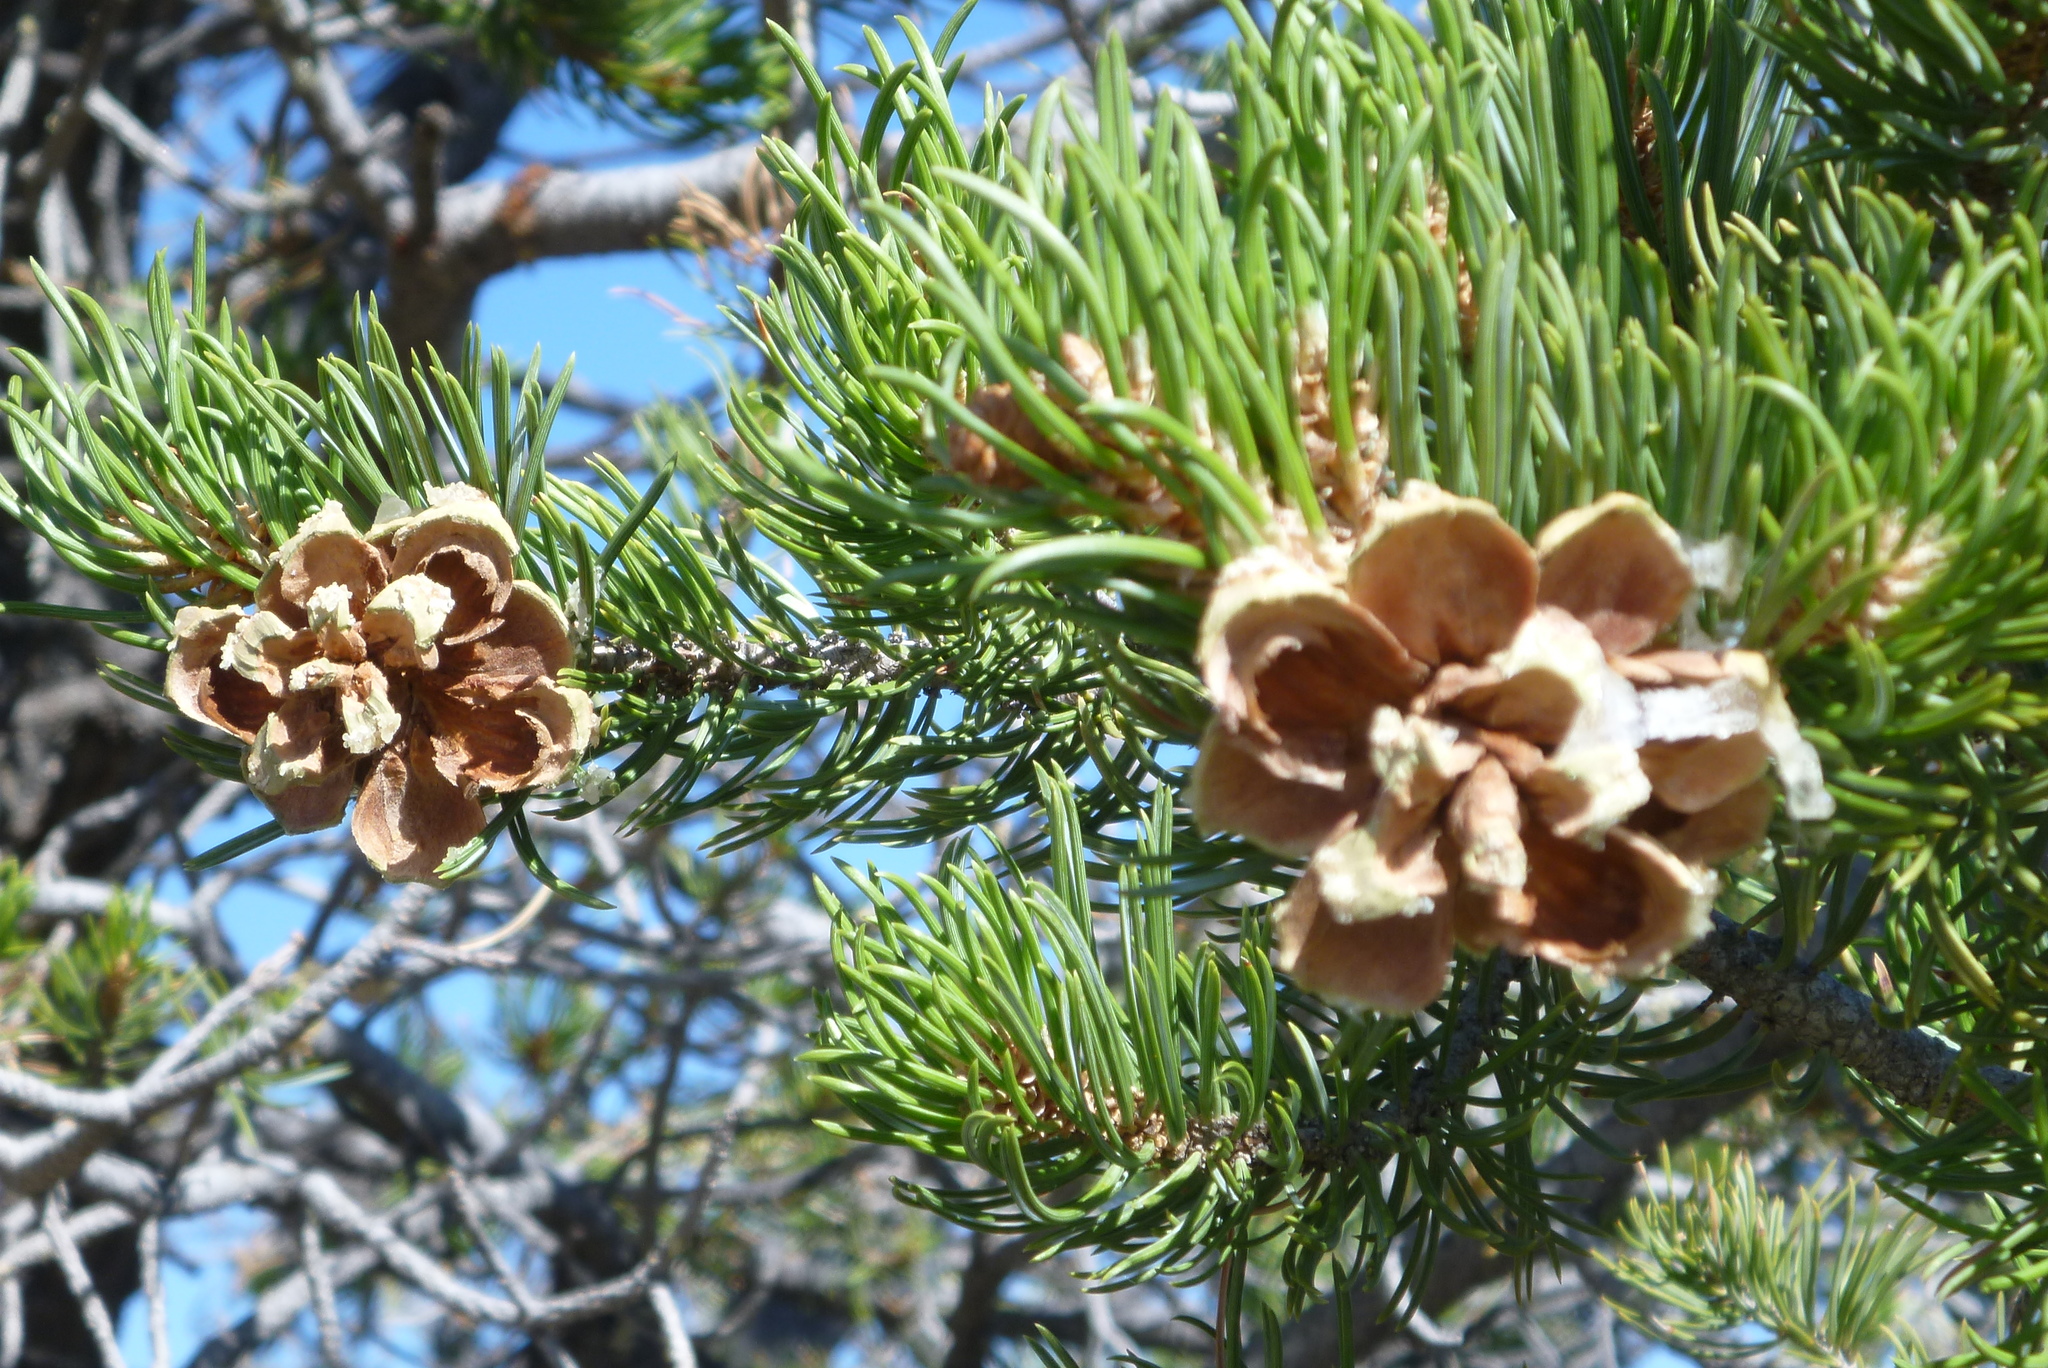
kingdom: Plantae
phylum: Tracheophyta
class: Pinopsida
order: Pinales
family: Pinaceae
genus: Pinus
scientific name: Pinus edulis
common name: Colorado pinyon
